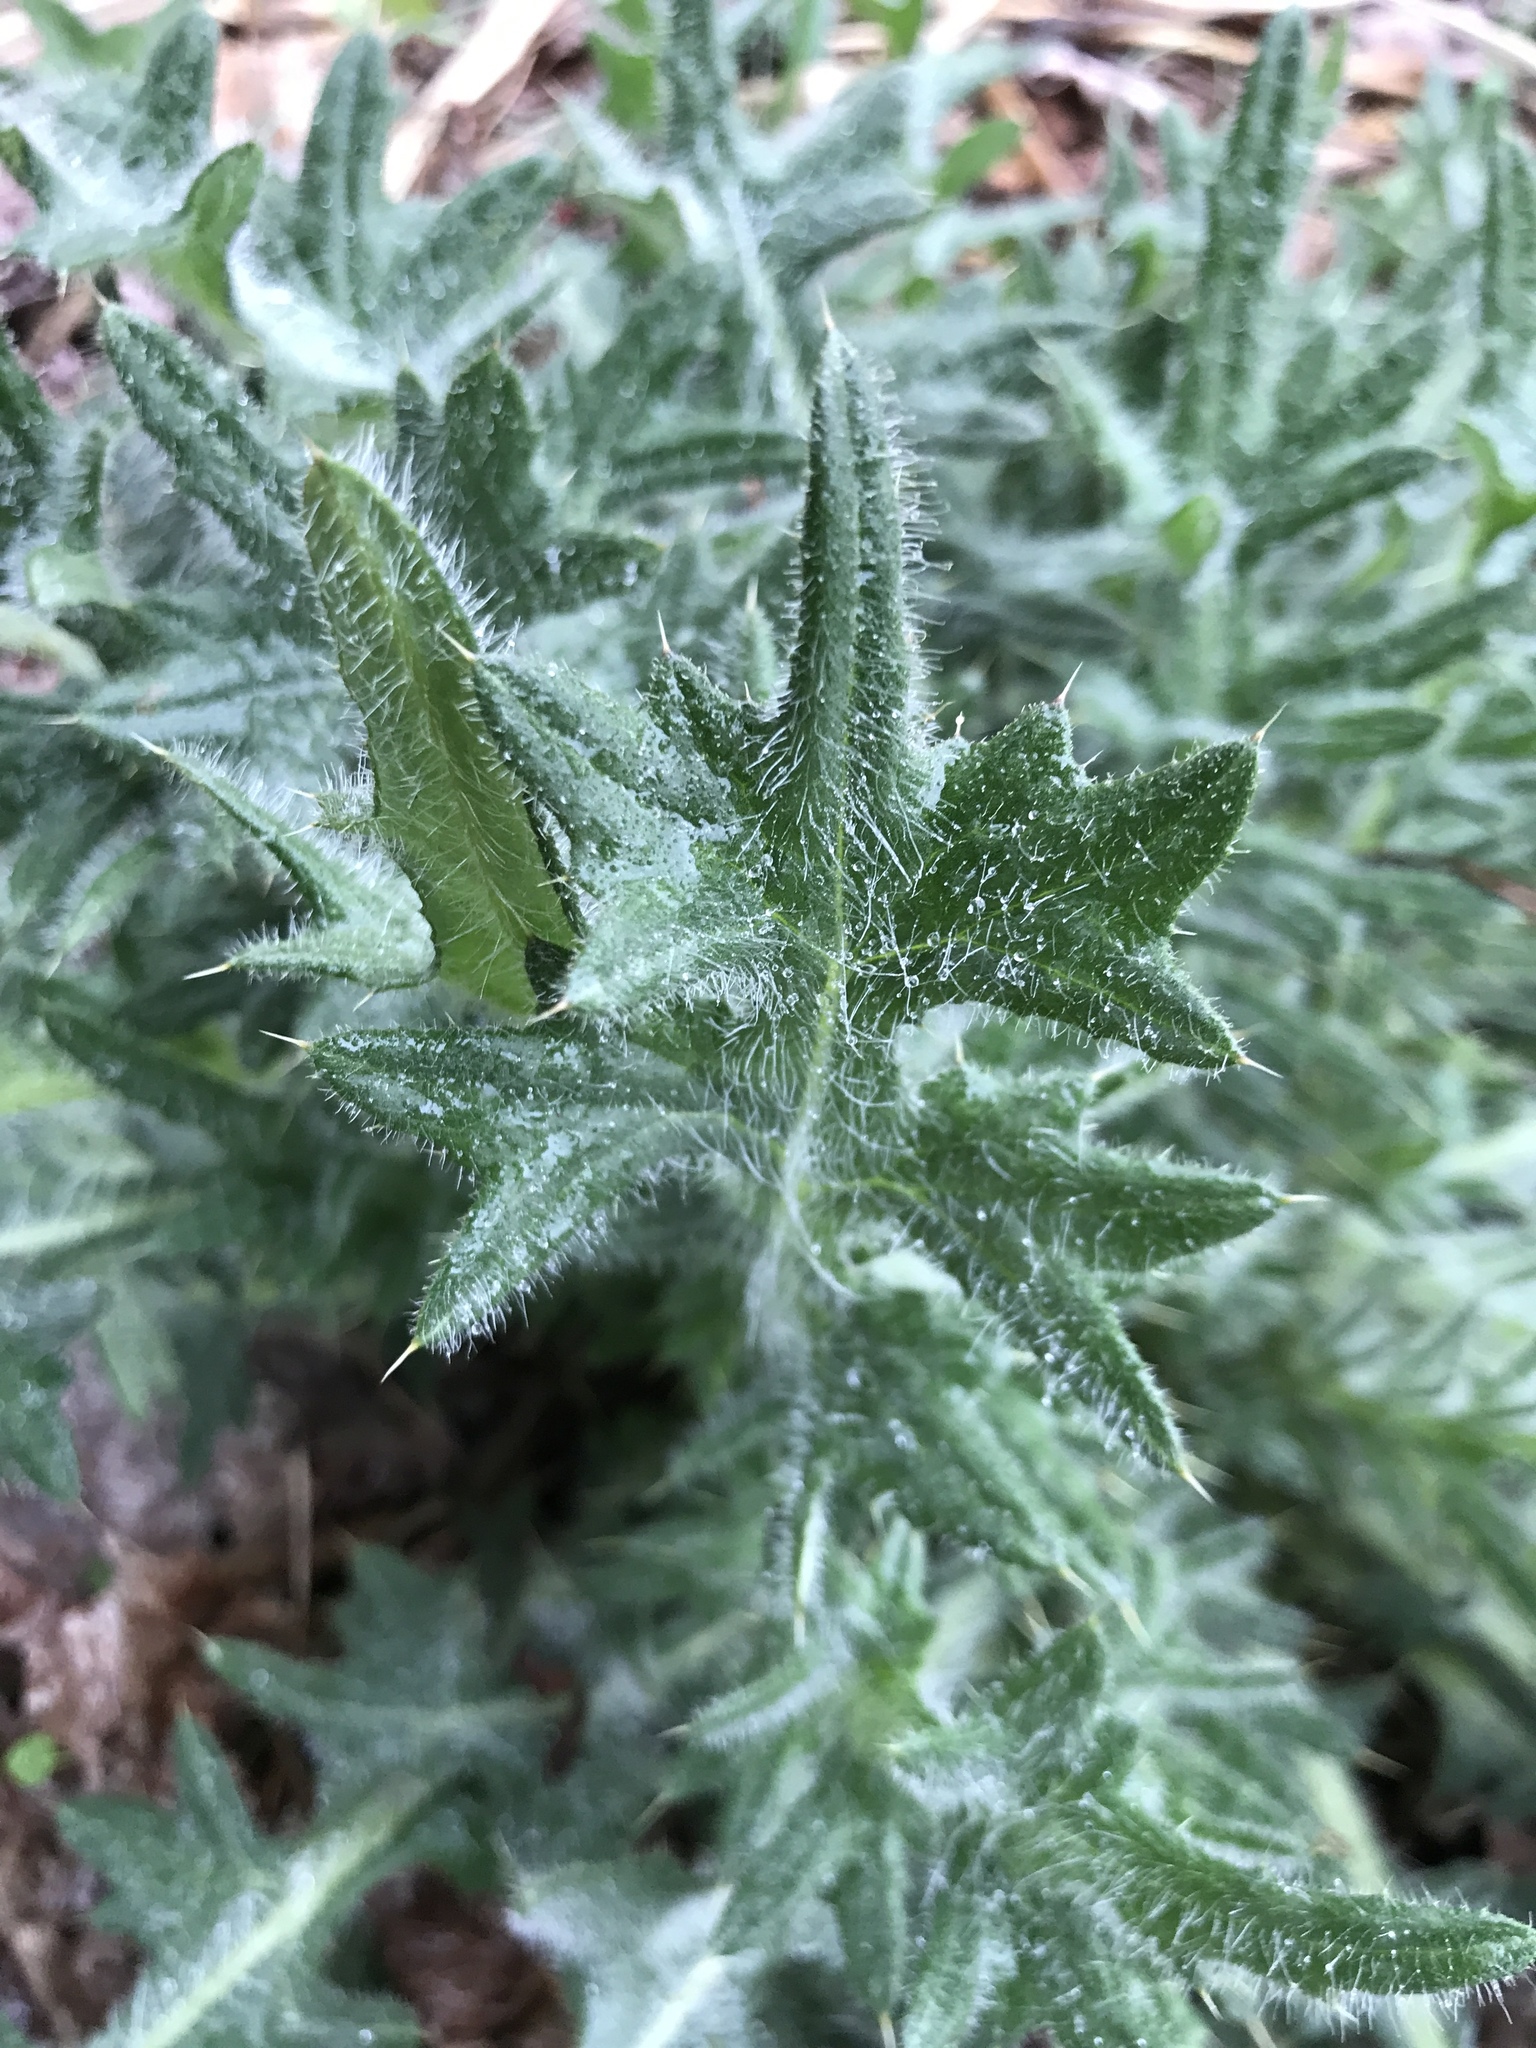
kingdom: Plantae
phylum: Tracheophyta
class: Magnoliopsida
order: Asterales
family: Asteraceae
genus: Cirsium
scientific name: Cirsium vulgare
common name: Bull thistle
